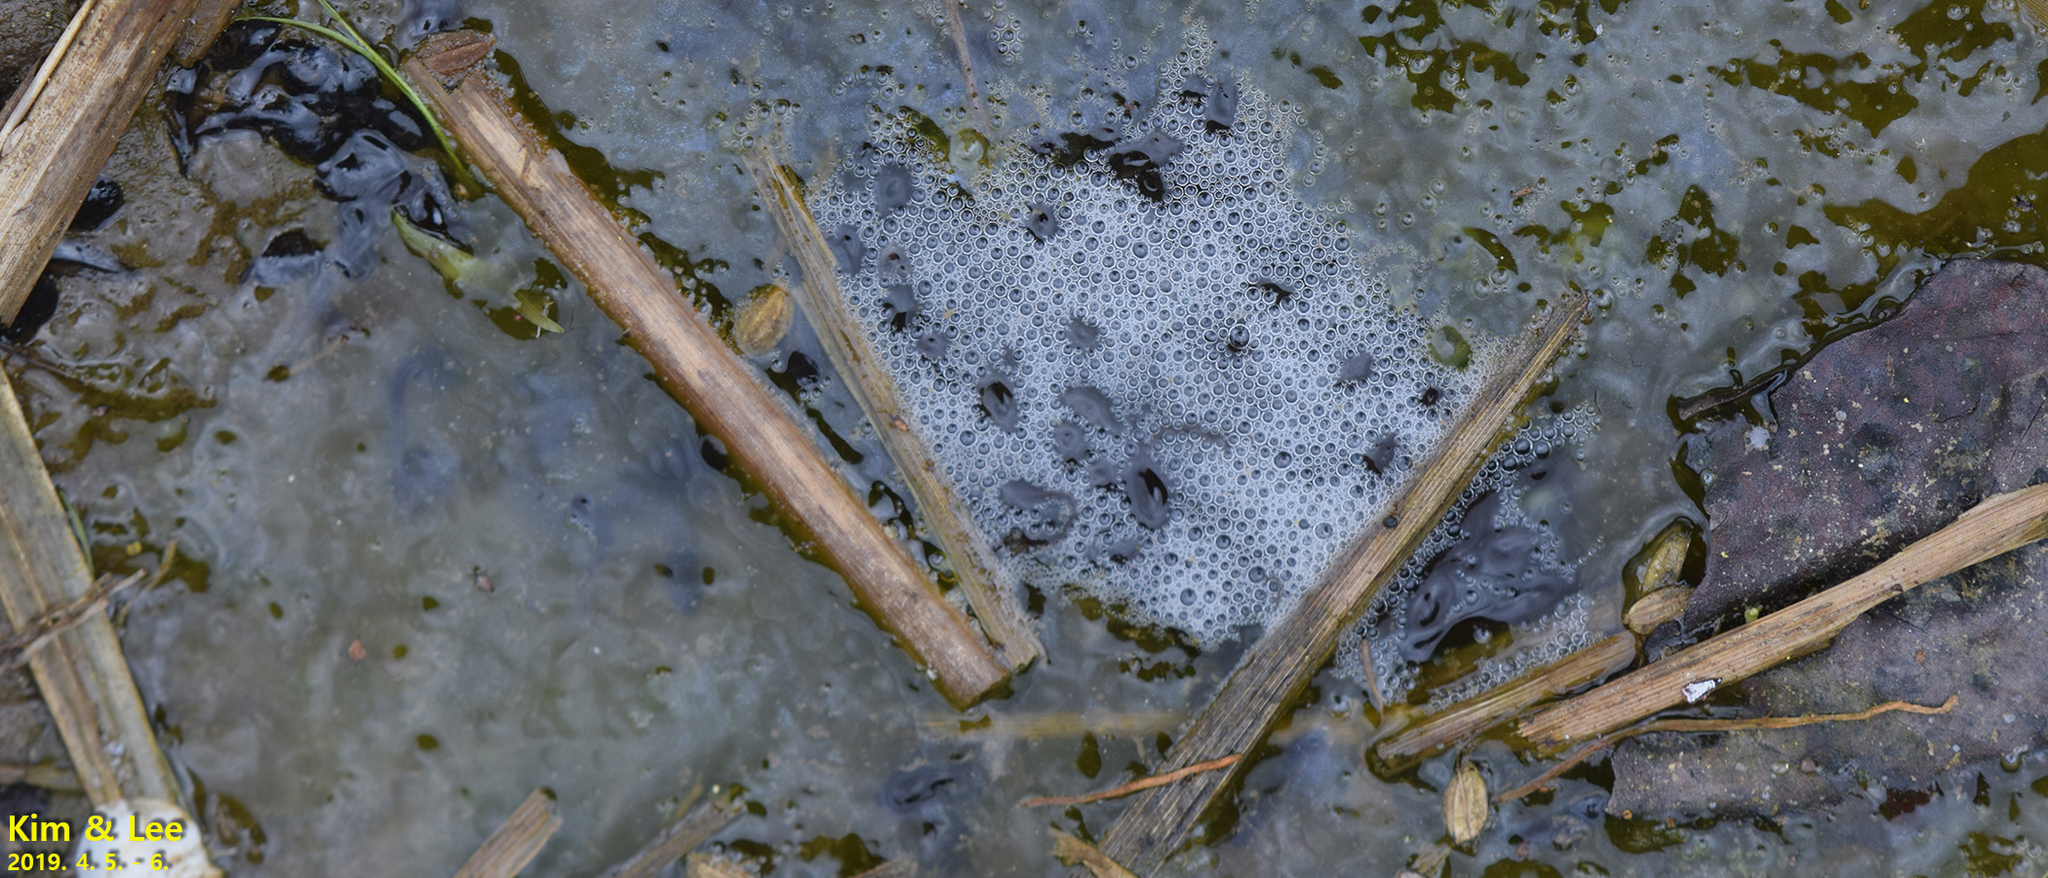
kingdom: Animalia
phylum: Chordata
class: Amphibia
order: Anura
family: Ranidae
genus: Rana
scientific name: Rana uenoi
